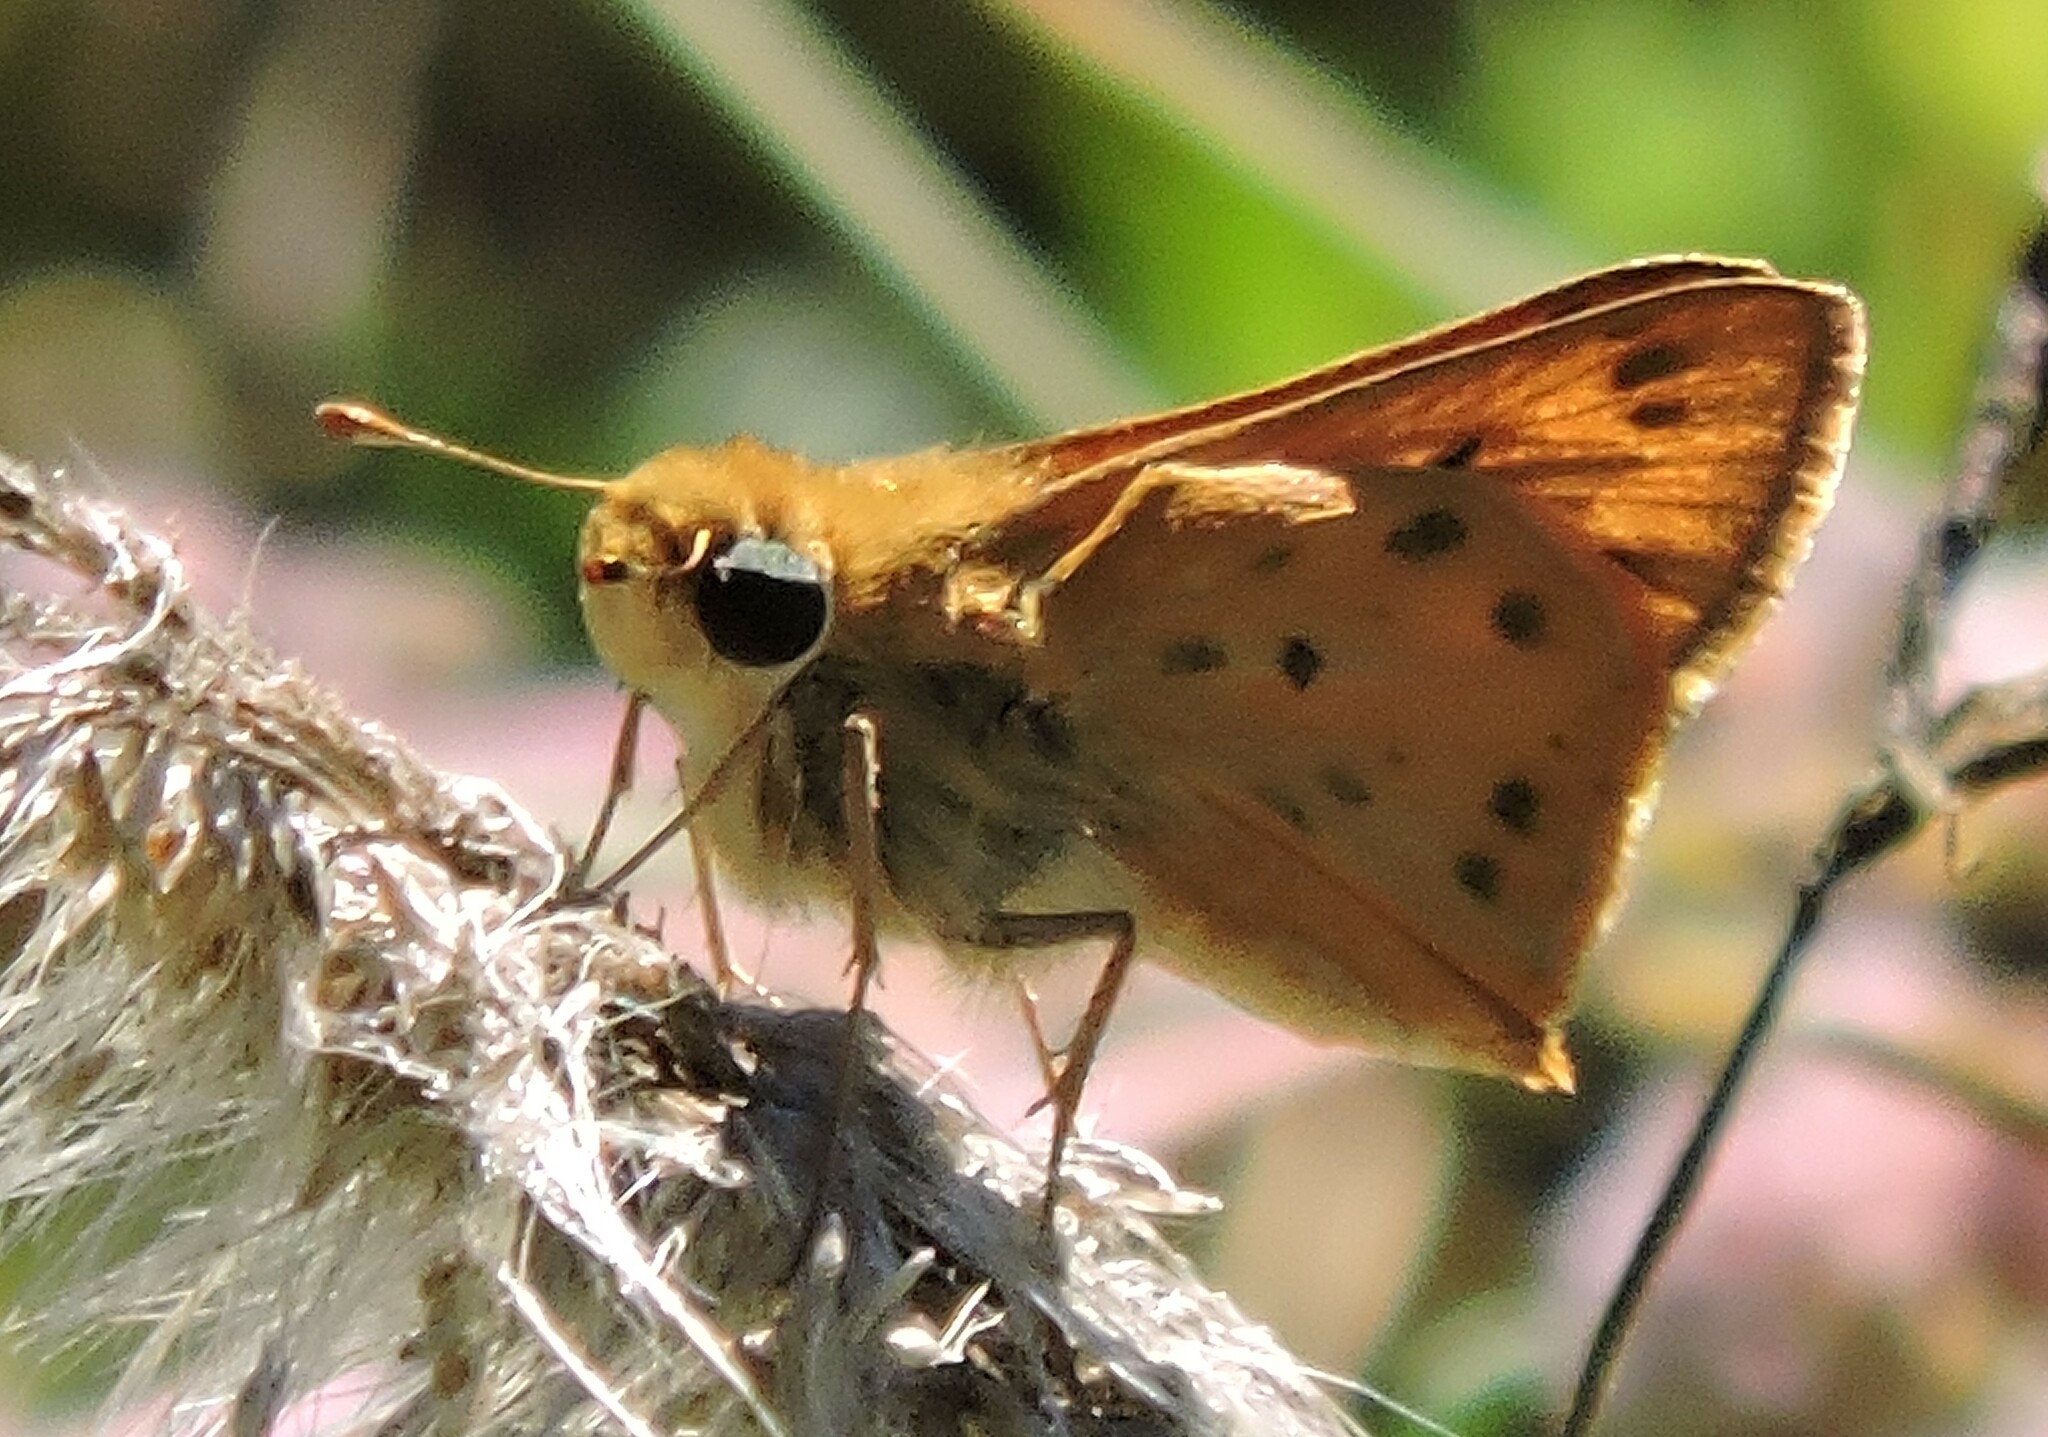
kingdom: Animalia
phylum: Arthropoda
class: Insecta
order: Lepidoptera
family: Hesperiidae
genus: Hylephila
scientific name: Hylephila phyleus
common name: Fiery skipper
